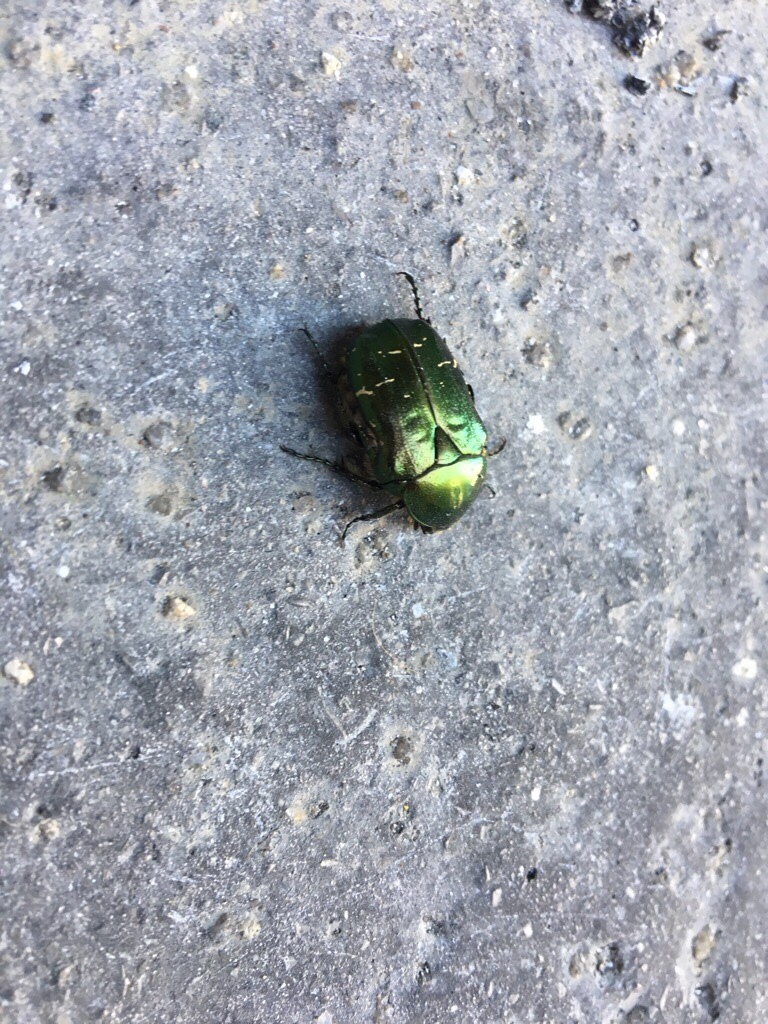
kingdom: Animalia
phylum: Arthropoda
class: Insecta
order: Coleoptera
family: Scarabaeidae
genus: Cetonia
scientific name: Cetonia aurata
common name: Rose chafer
